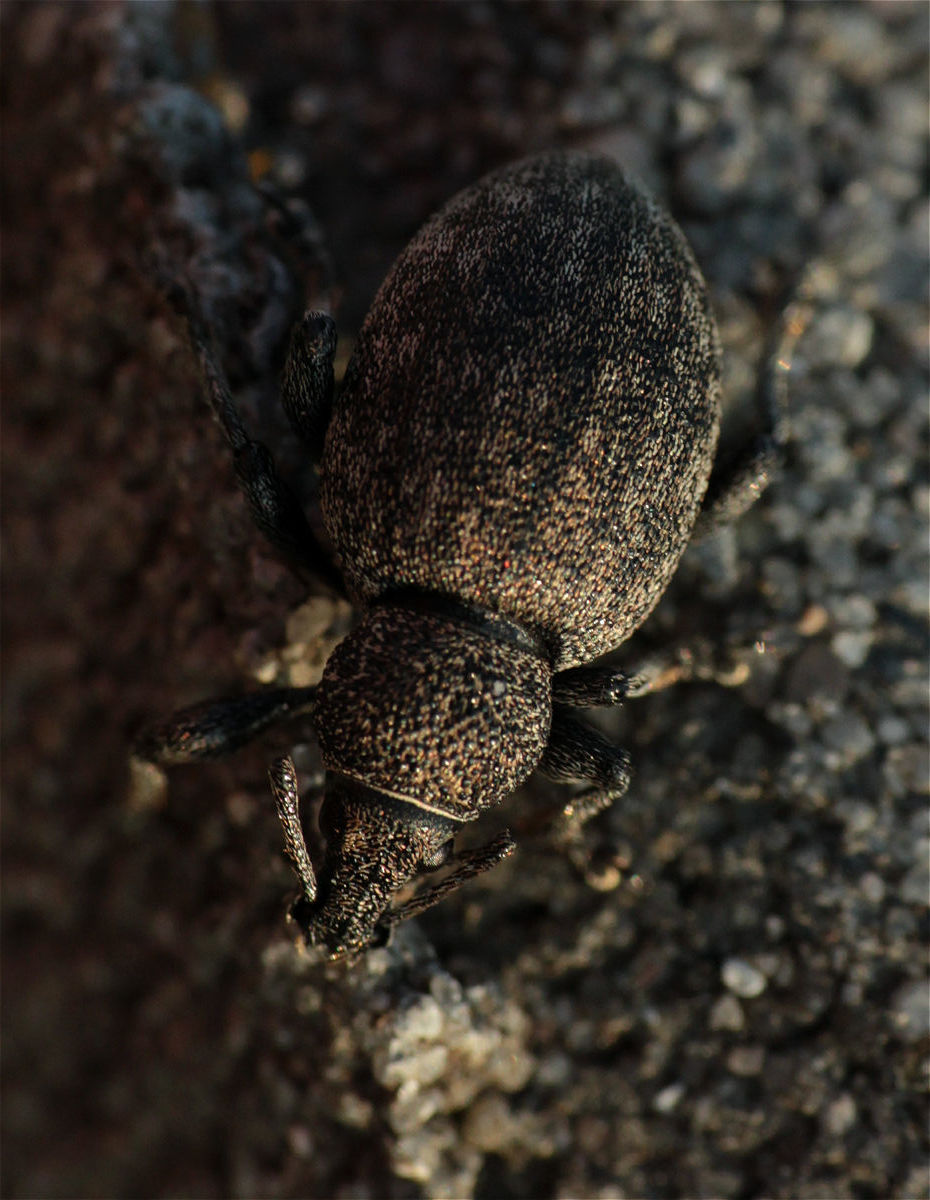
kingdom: Animalia
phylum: Arthropoda
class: Insecta
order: Coleoptera
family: Curculionidae
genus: Otiorhynchus
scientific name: Otiorhynchus ligustici
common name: Weevil
